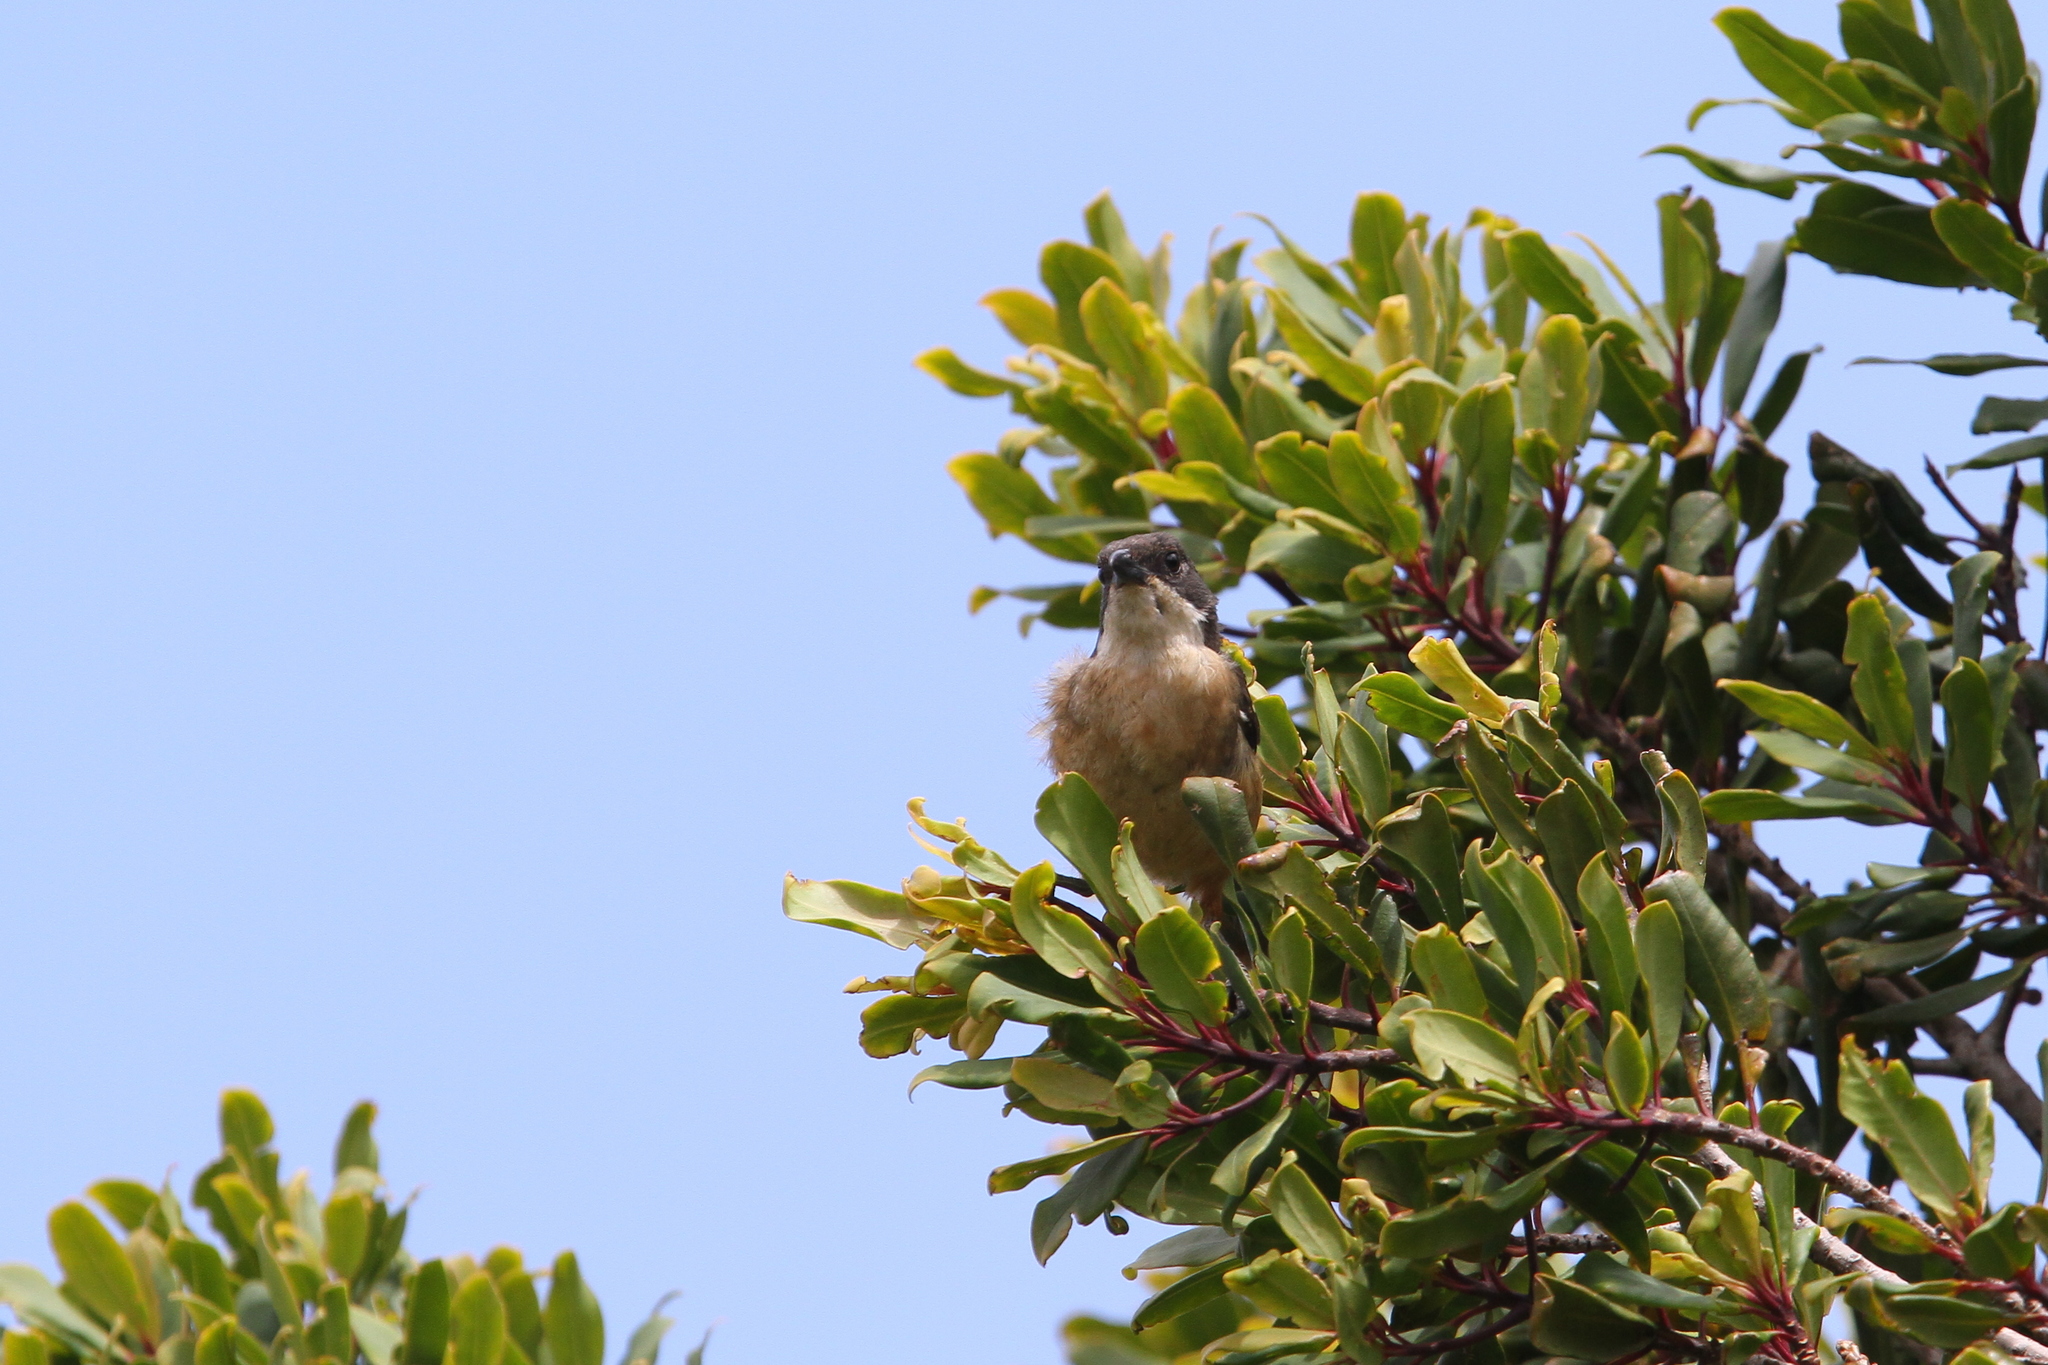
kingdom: Animalia
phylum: Chordata
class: Aves
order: Passeriformes
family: Malaconotidae
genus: Laniarius
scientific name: Laniarius ferrugineus
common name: Southern boubou
